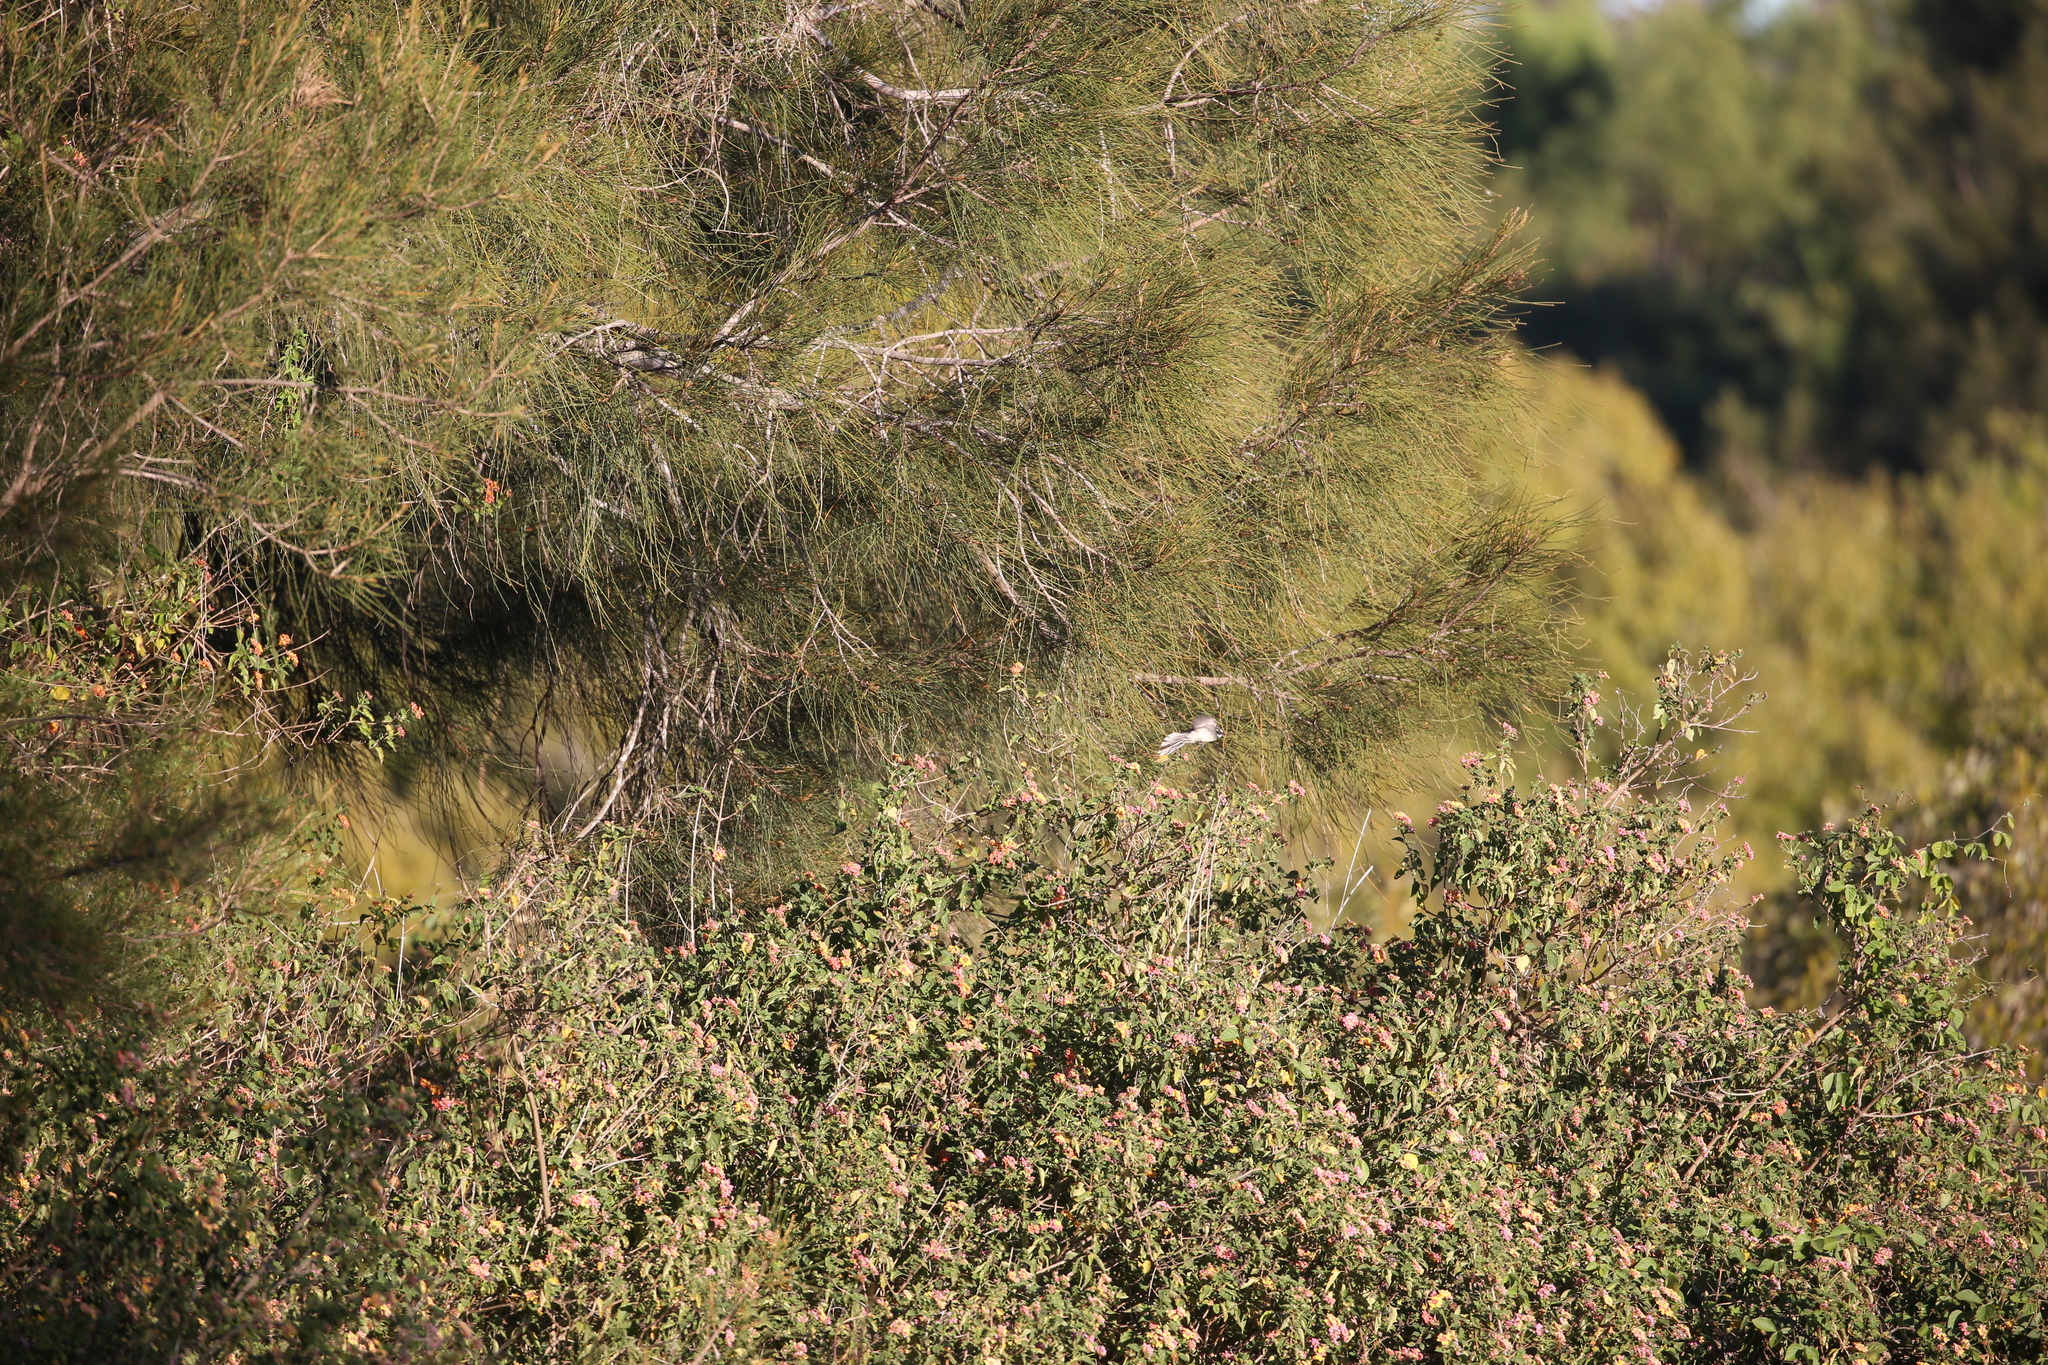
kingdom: Animalia
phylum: Chordata
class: Aves
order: Passeriformes
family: Rhipiduridae
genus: Rhipidura
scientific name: Rhipidura albiscapa
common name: Grey fantail
